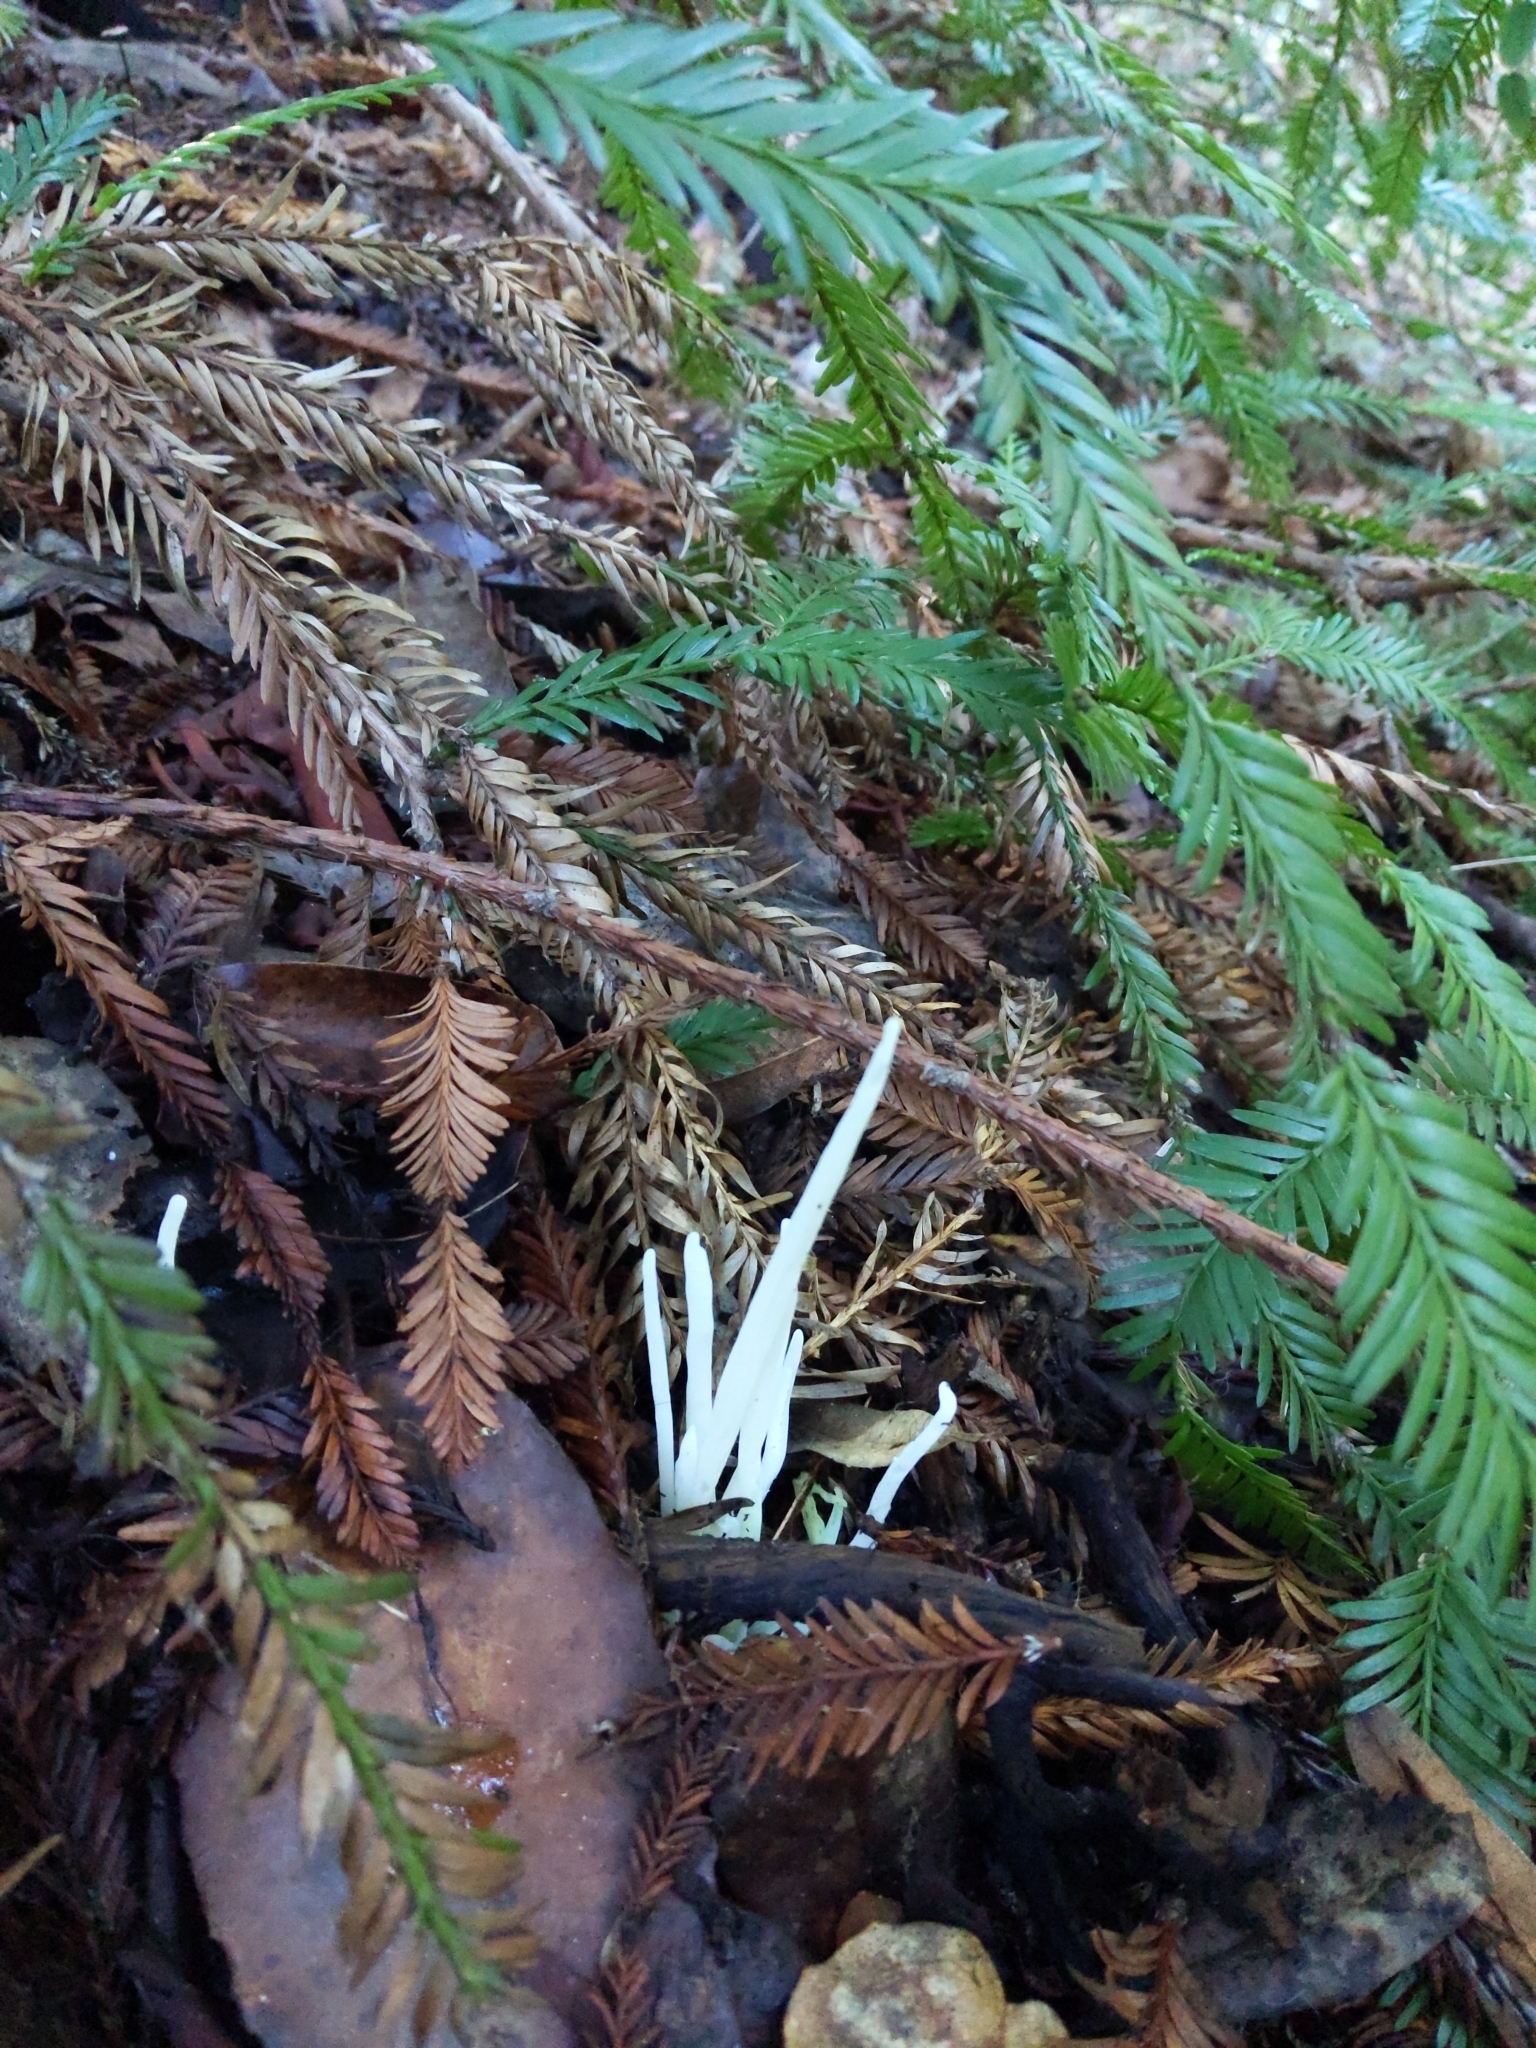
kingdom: Fungi
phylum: Basidiomycota
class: Agaricomycetes
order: Agaricales
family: Clavariaceae
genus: Clavaria
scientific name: Clavaria fragilis
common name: White spindles
